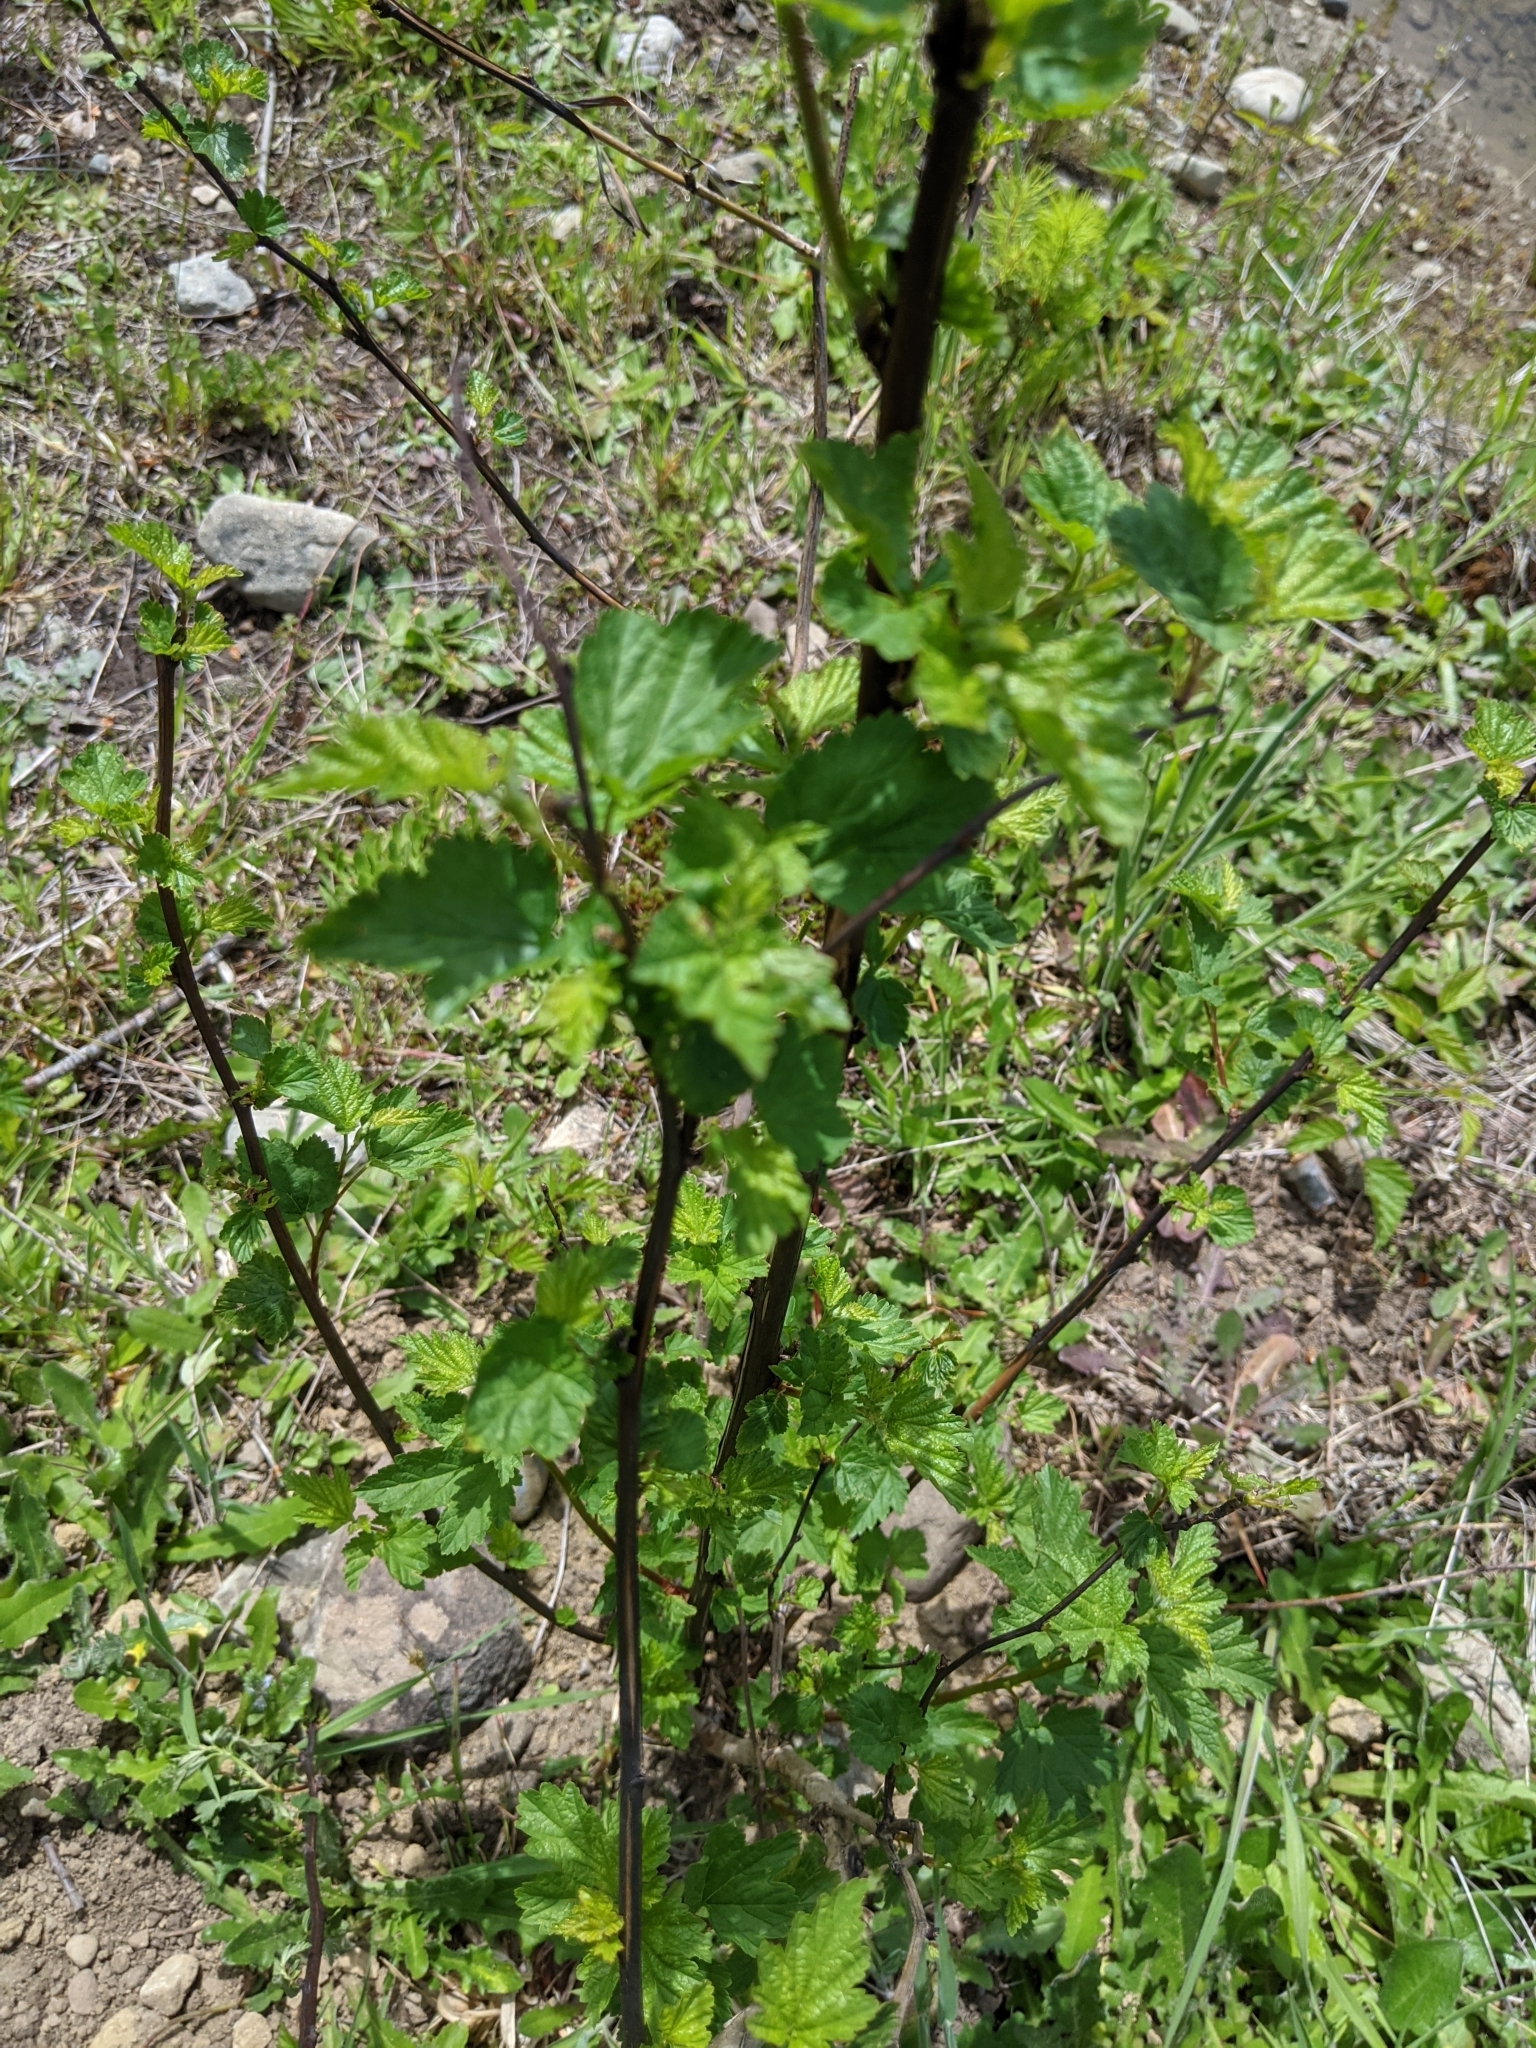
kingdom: Plantae
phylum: Tracheophyta
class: Magnoliopsida
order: Rosales
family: Rosaceae
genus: Physocarpus
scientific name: Physocarpus capitatus
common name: Pacific ninebark
